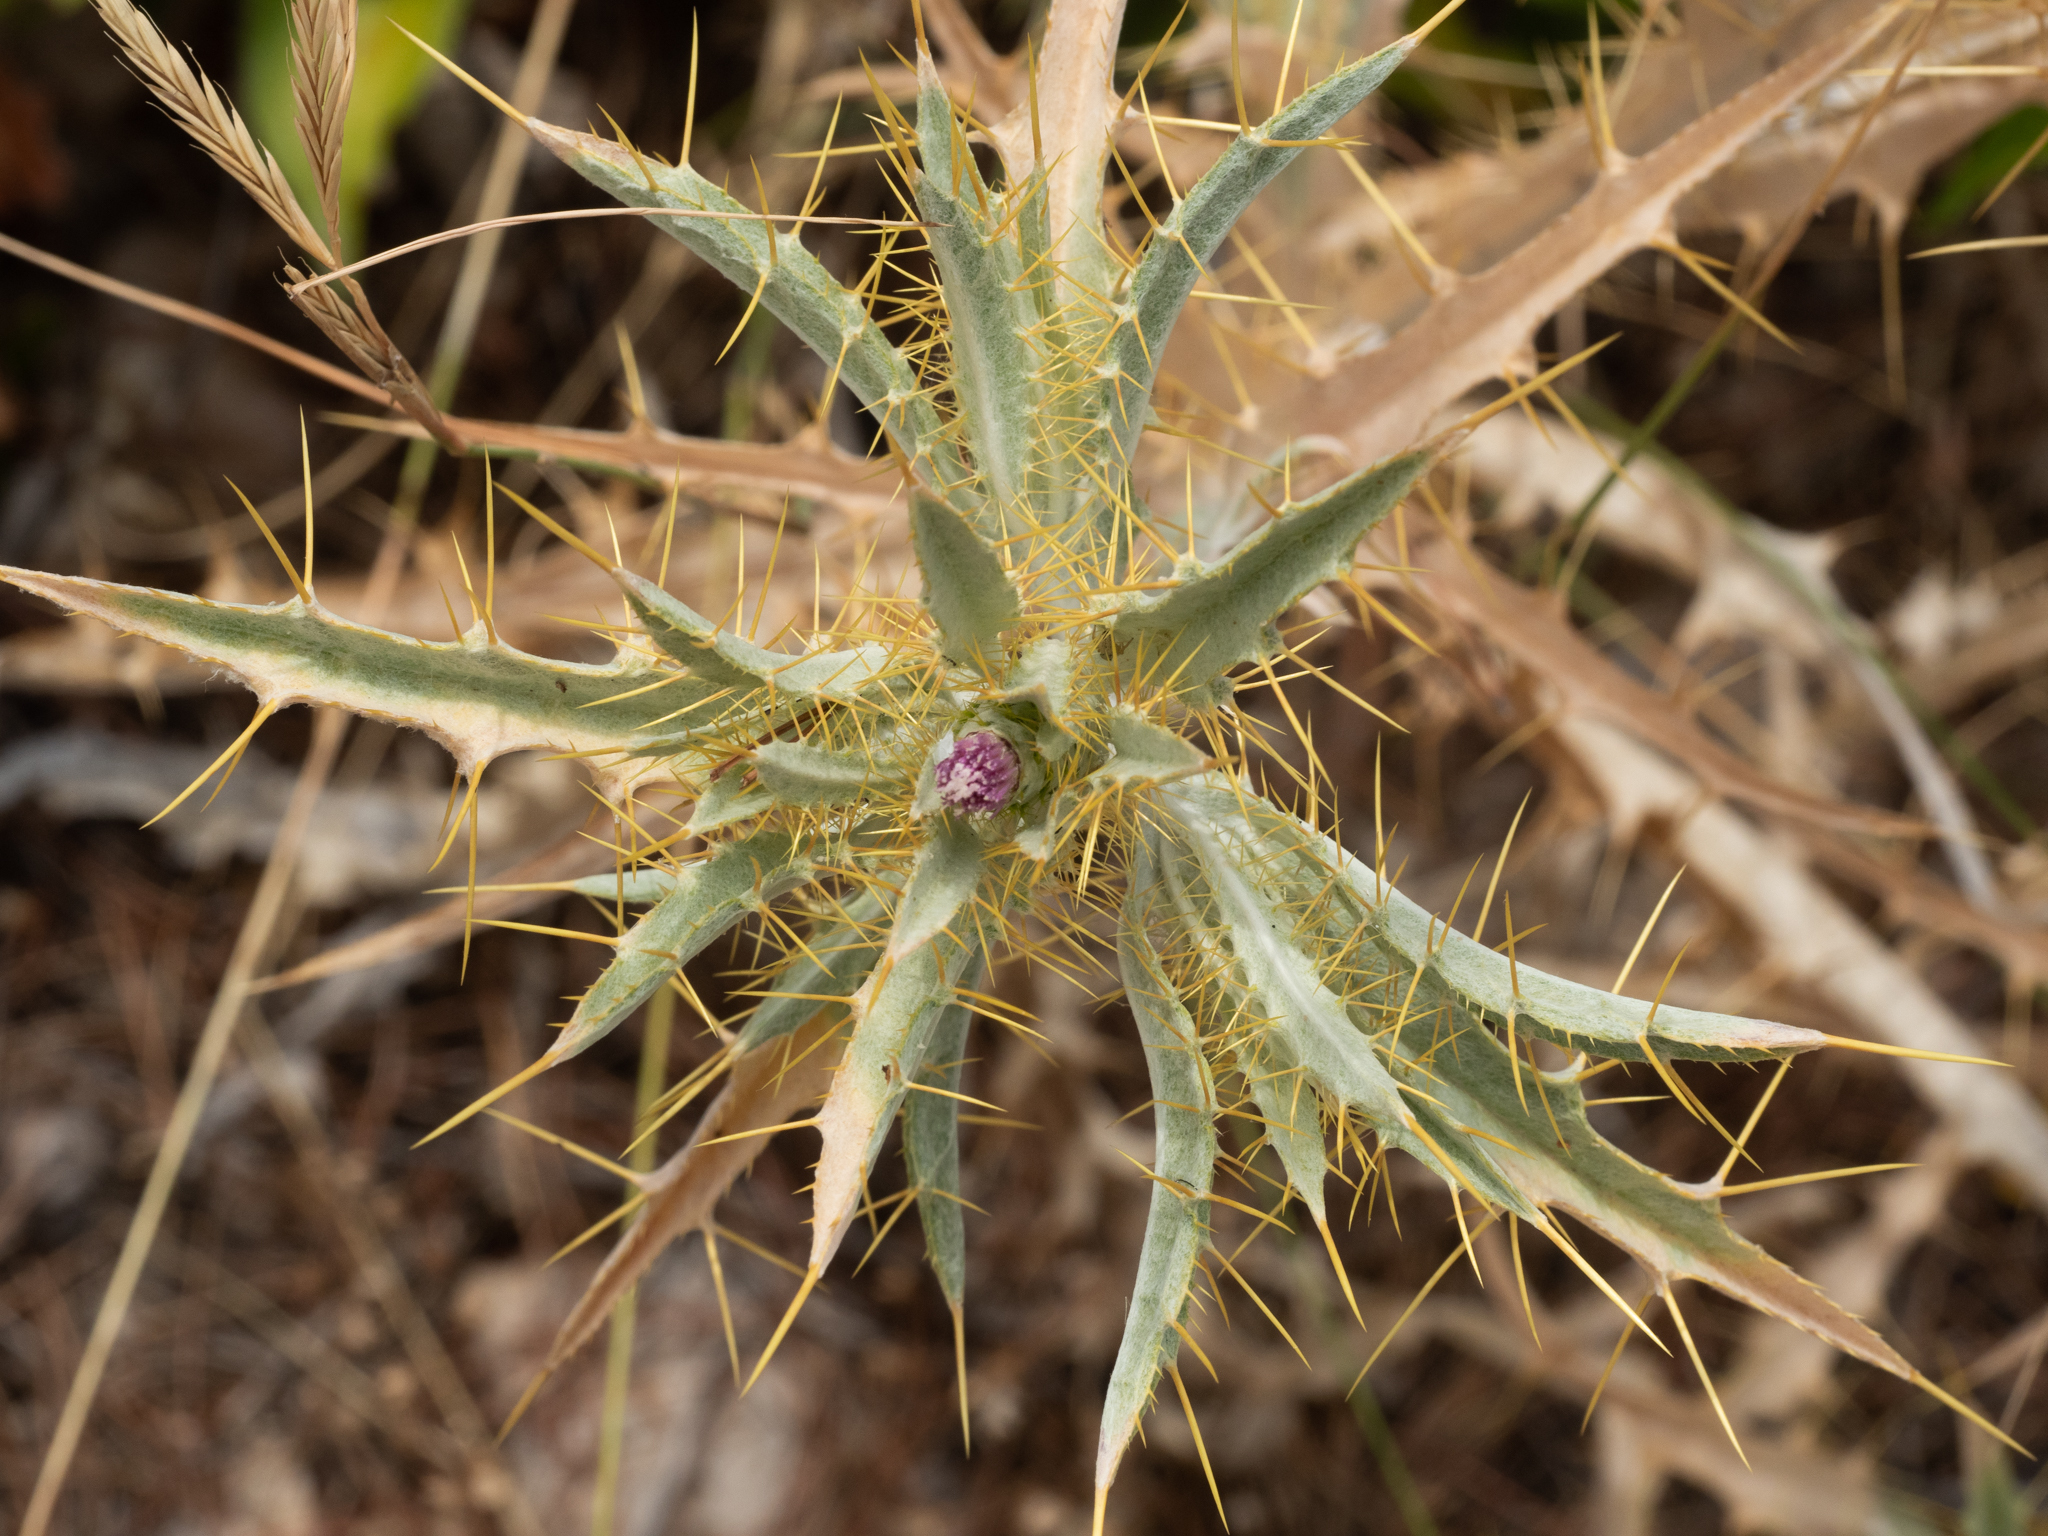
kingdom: Plantae
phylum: Tracheophyta
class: Magnoliopsida
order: Asterales
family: Asteraceae
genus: Picnomon
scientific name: Picnomon acarna
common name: Soldier thistle
